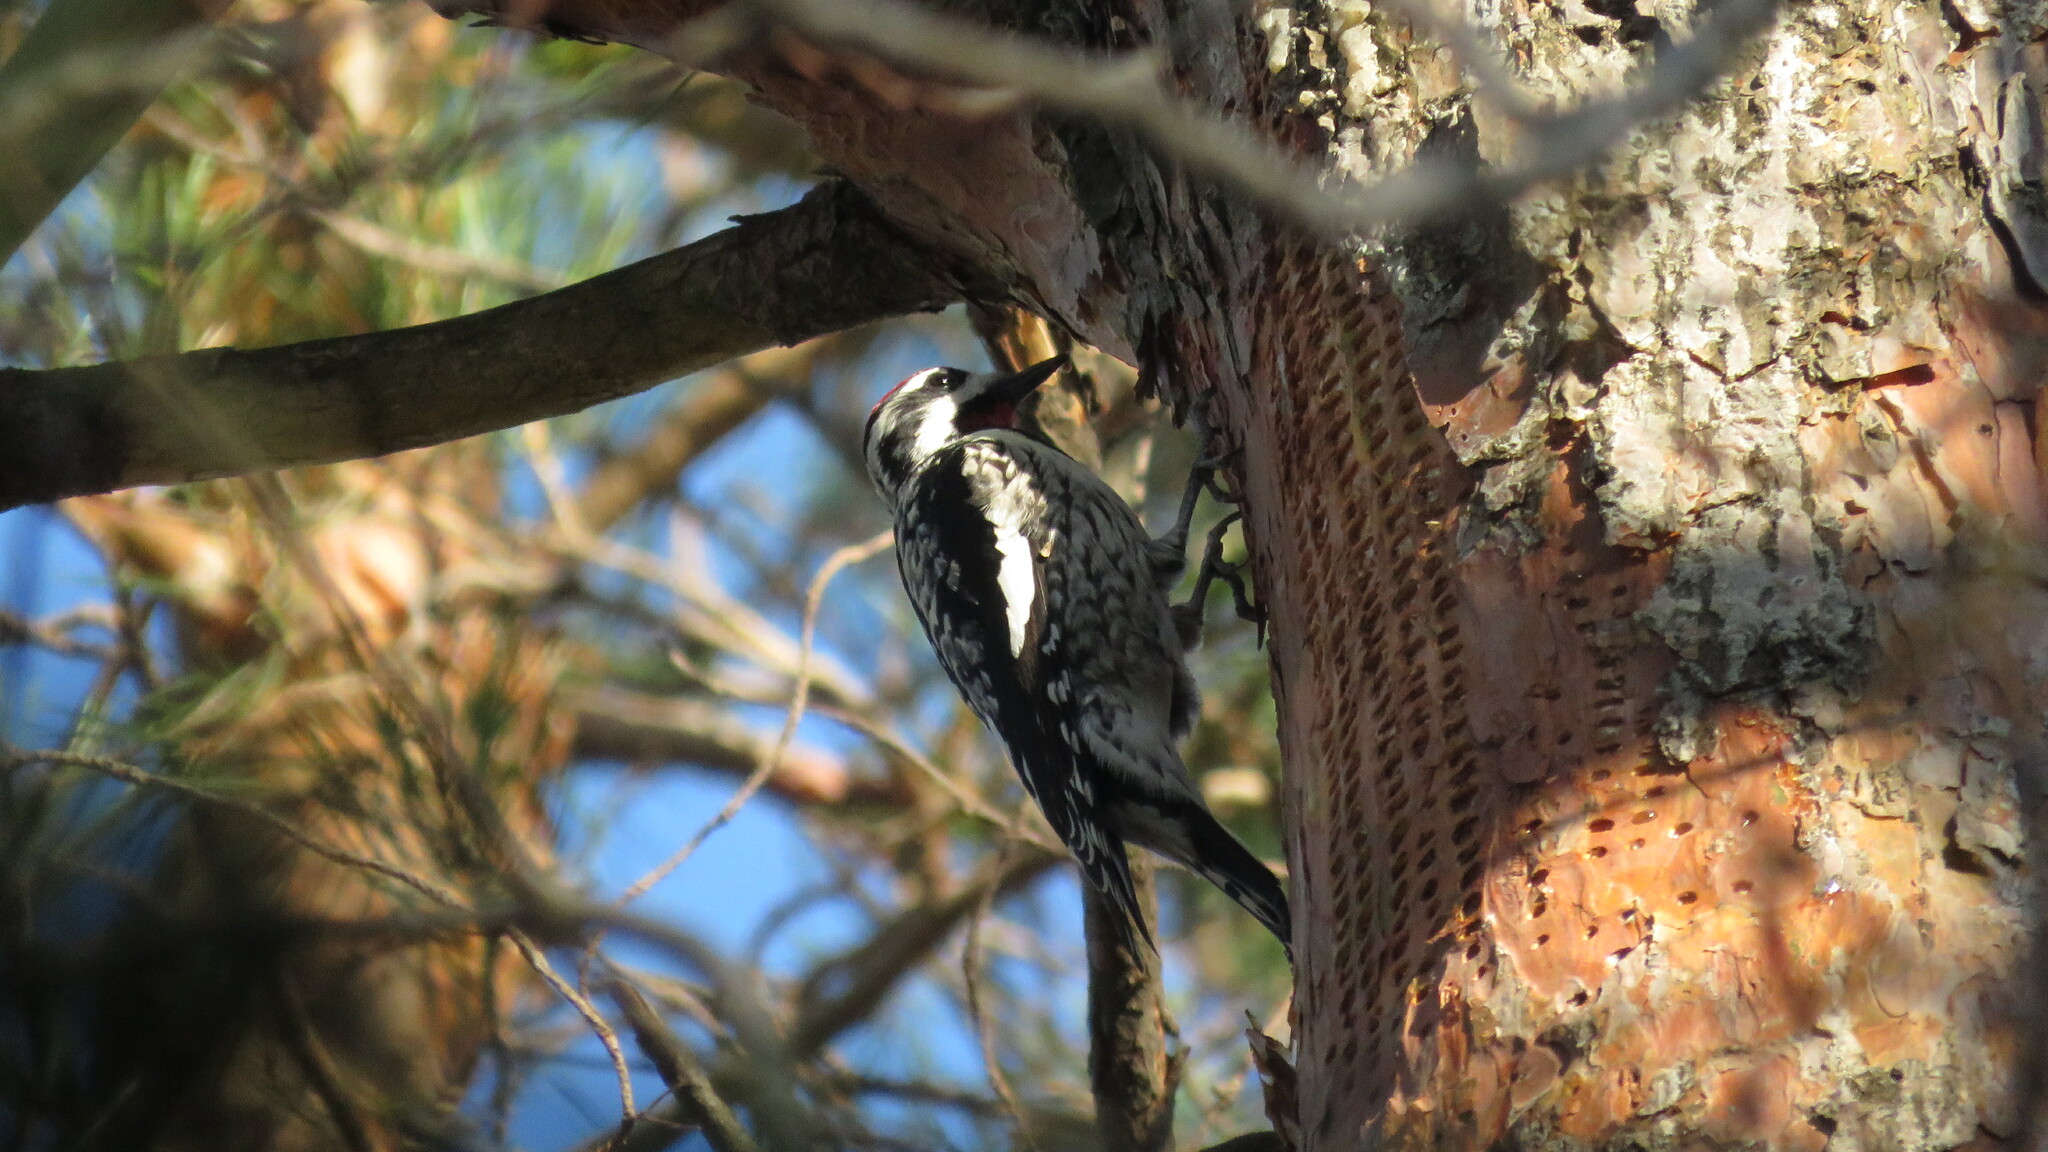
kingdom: Animalia
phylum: Chordata
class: Aves
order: Piciformes
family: Picidae
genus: Sphyrapicus
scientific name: Sphyrapicus varius
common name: Yellow-bellied sapsucker
